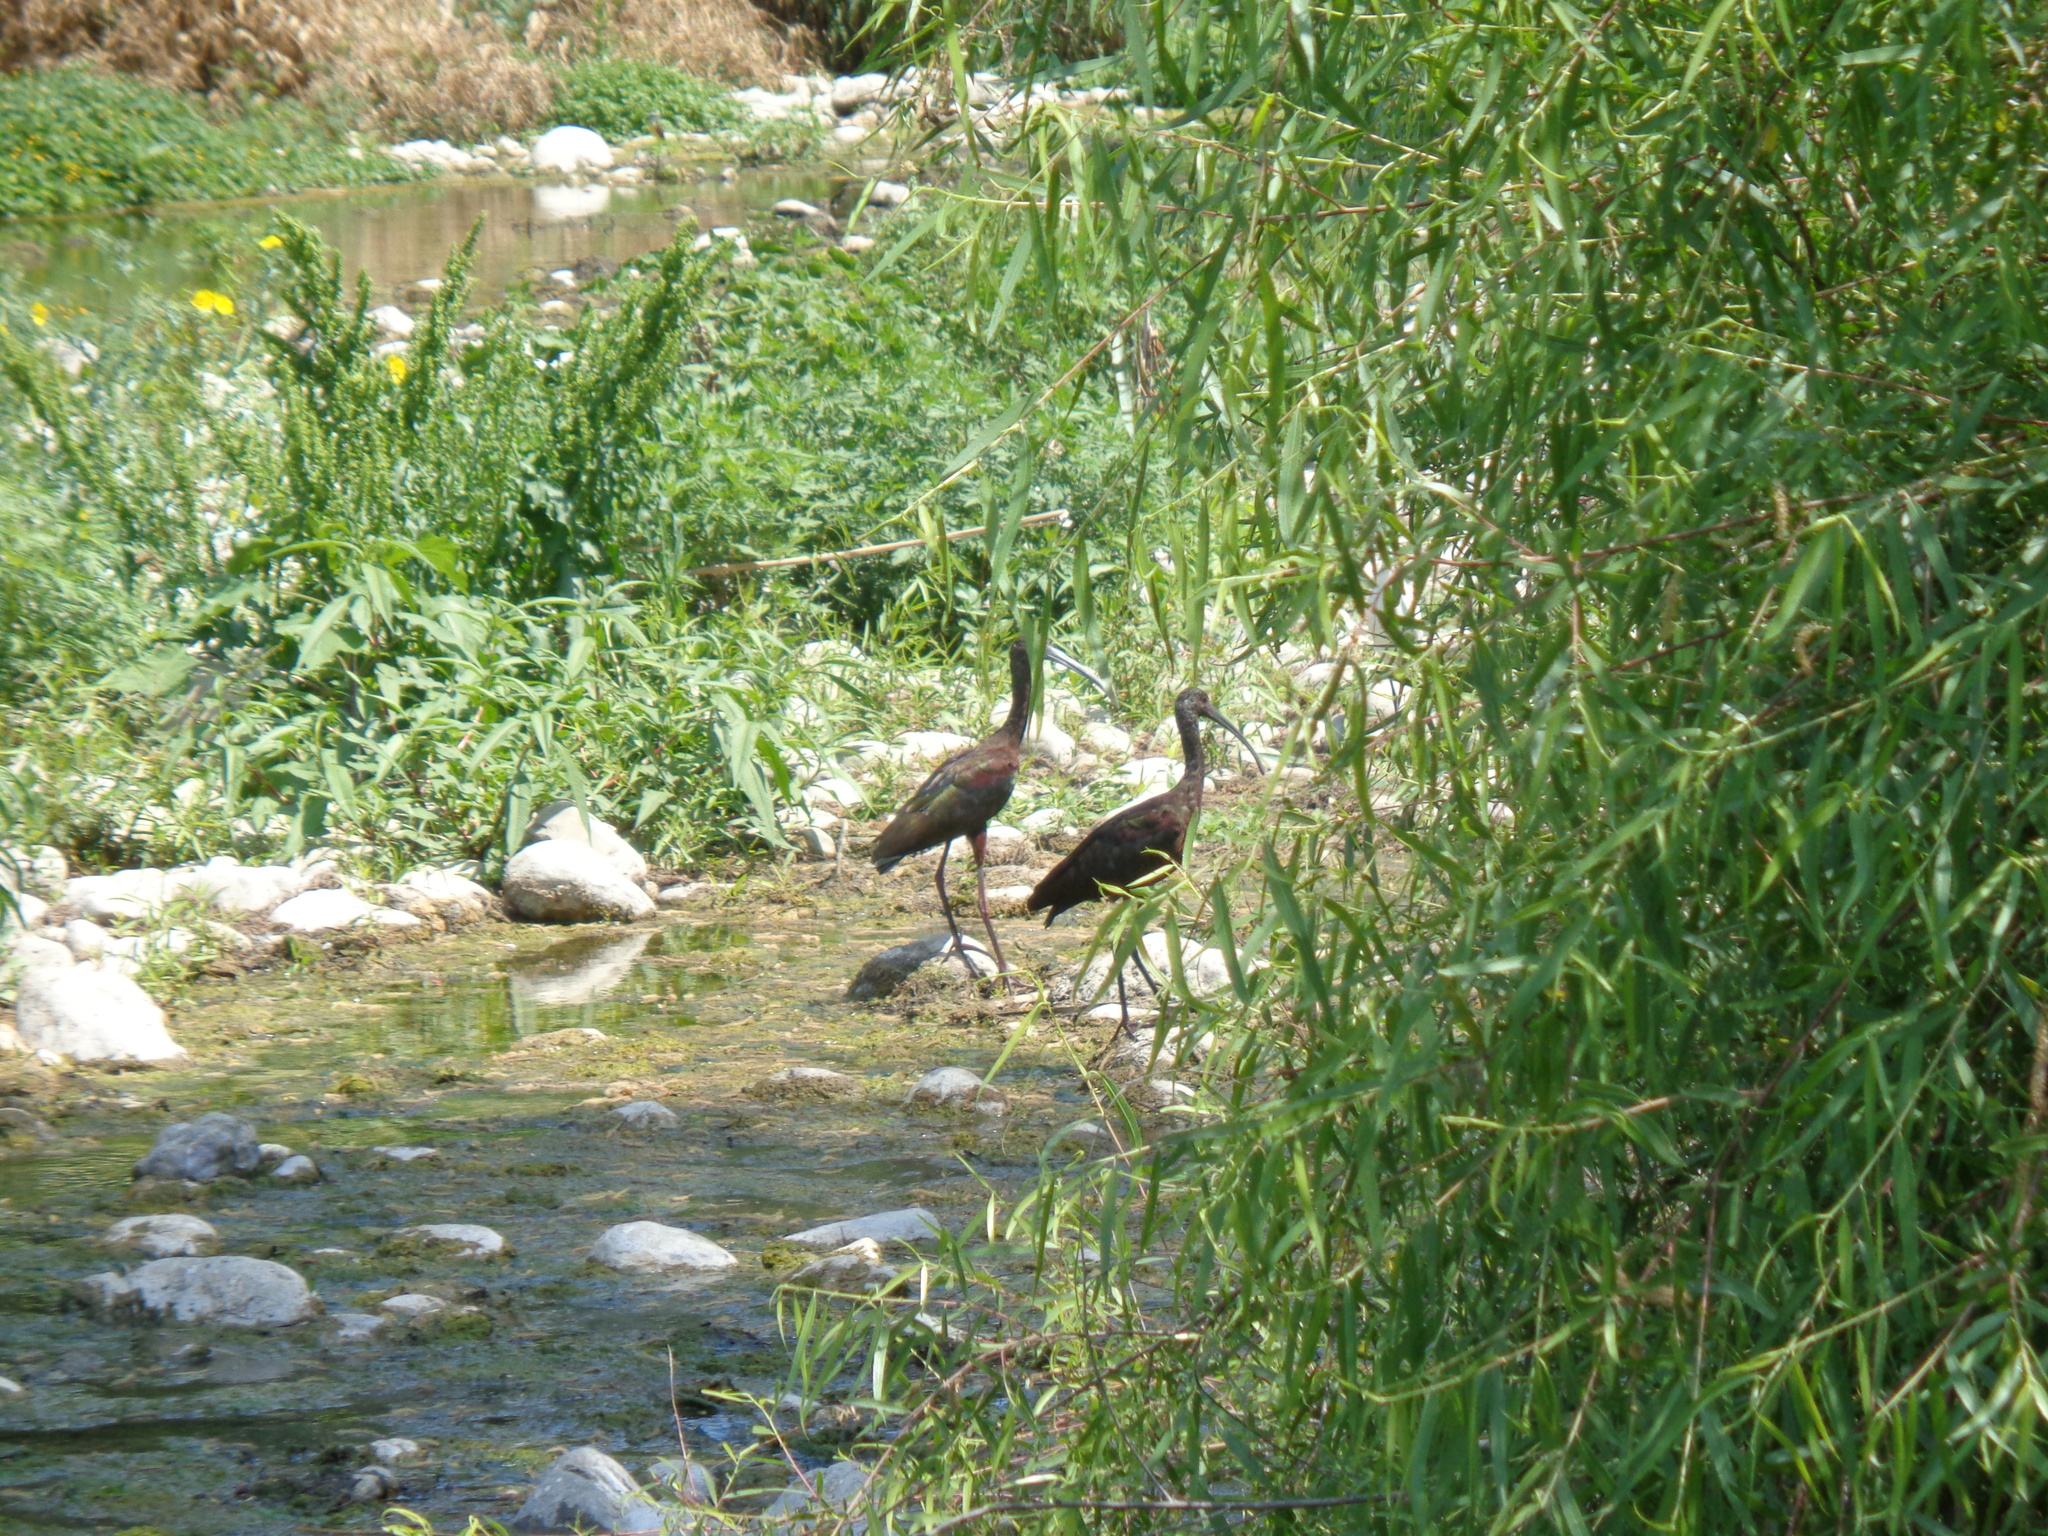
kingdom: Animalia
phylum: Chordata
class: Aves
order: Pelecaniformes
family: Threskiornithidae
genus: Plegadis
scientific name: Plegadis chihi
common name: White-faced ibis
